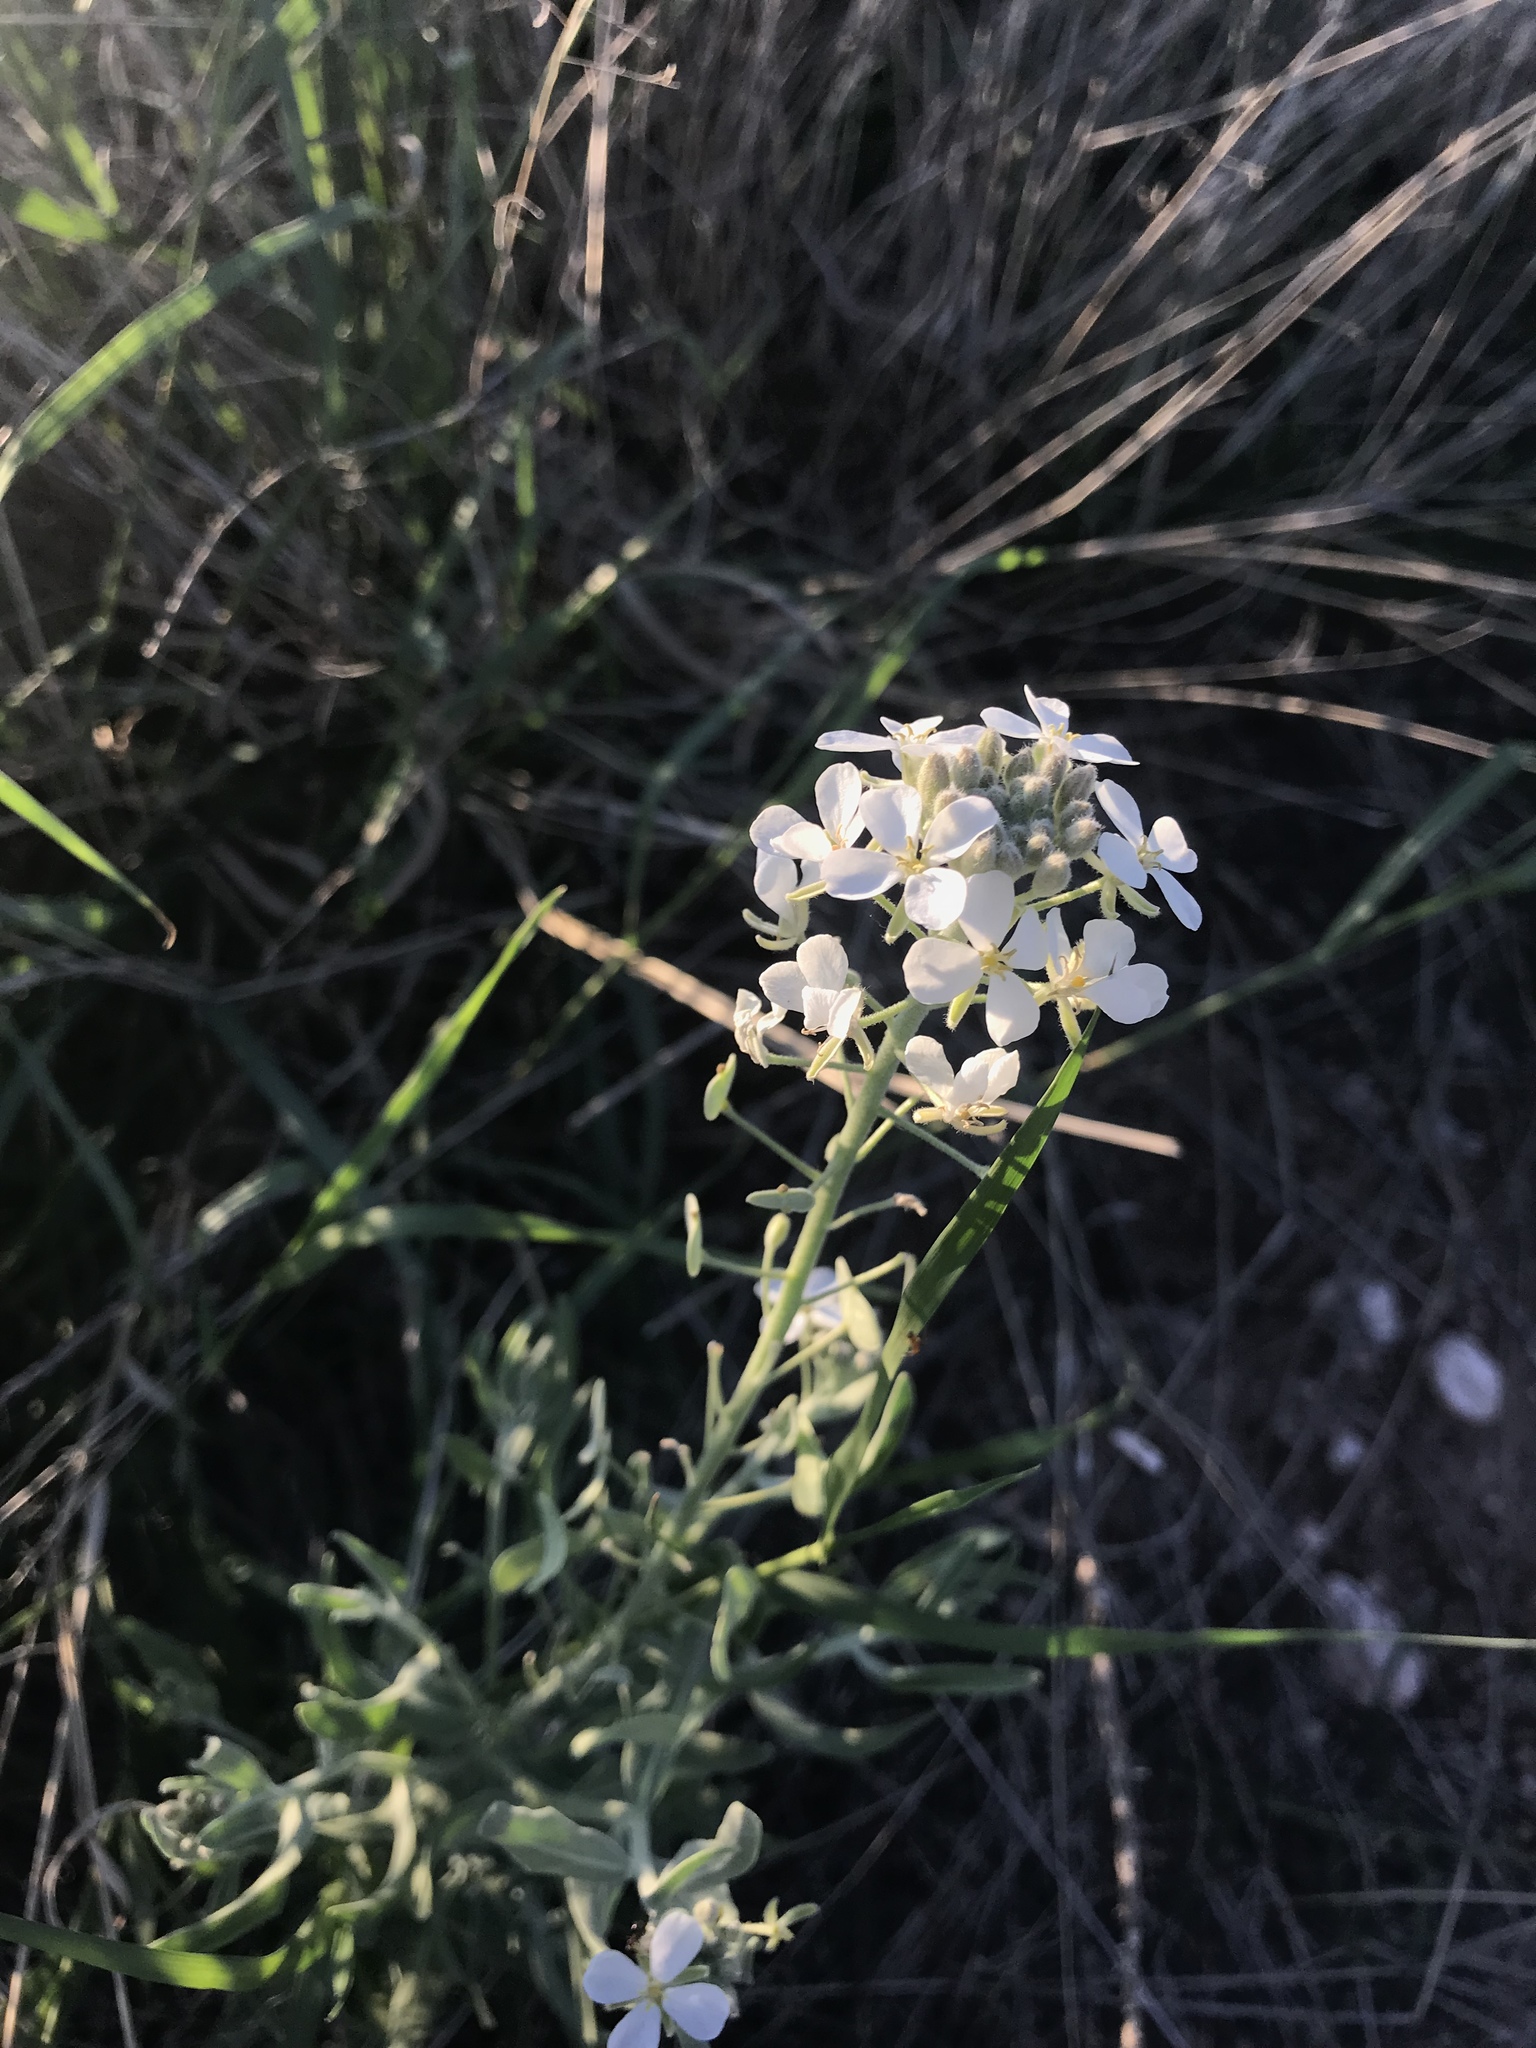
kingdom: Plantae
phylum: Tracheophyta
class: Magnoliopsida
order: Brassicales
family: Brassicaceae
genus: Dimorphocarpa
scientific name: Dimorphocarpa wislizenii
